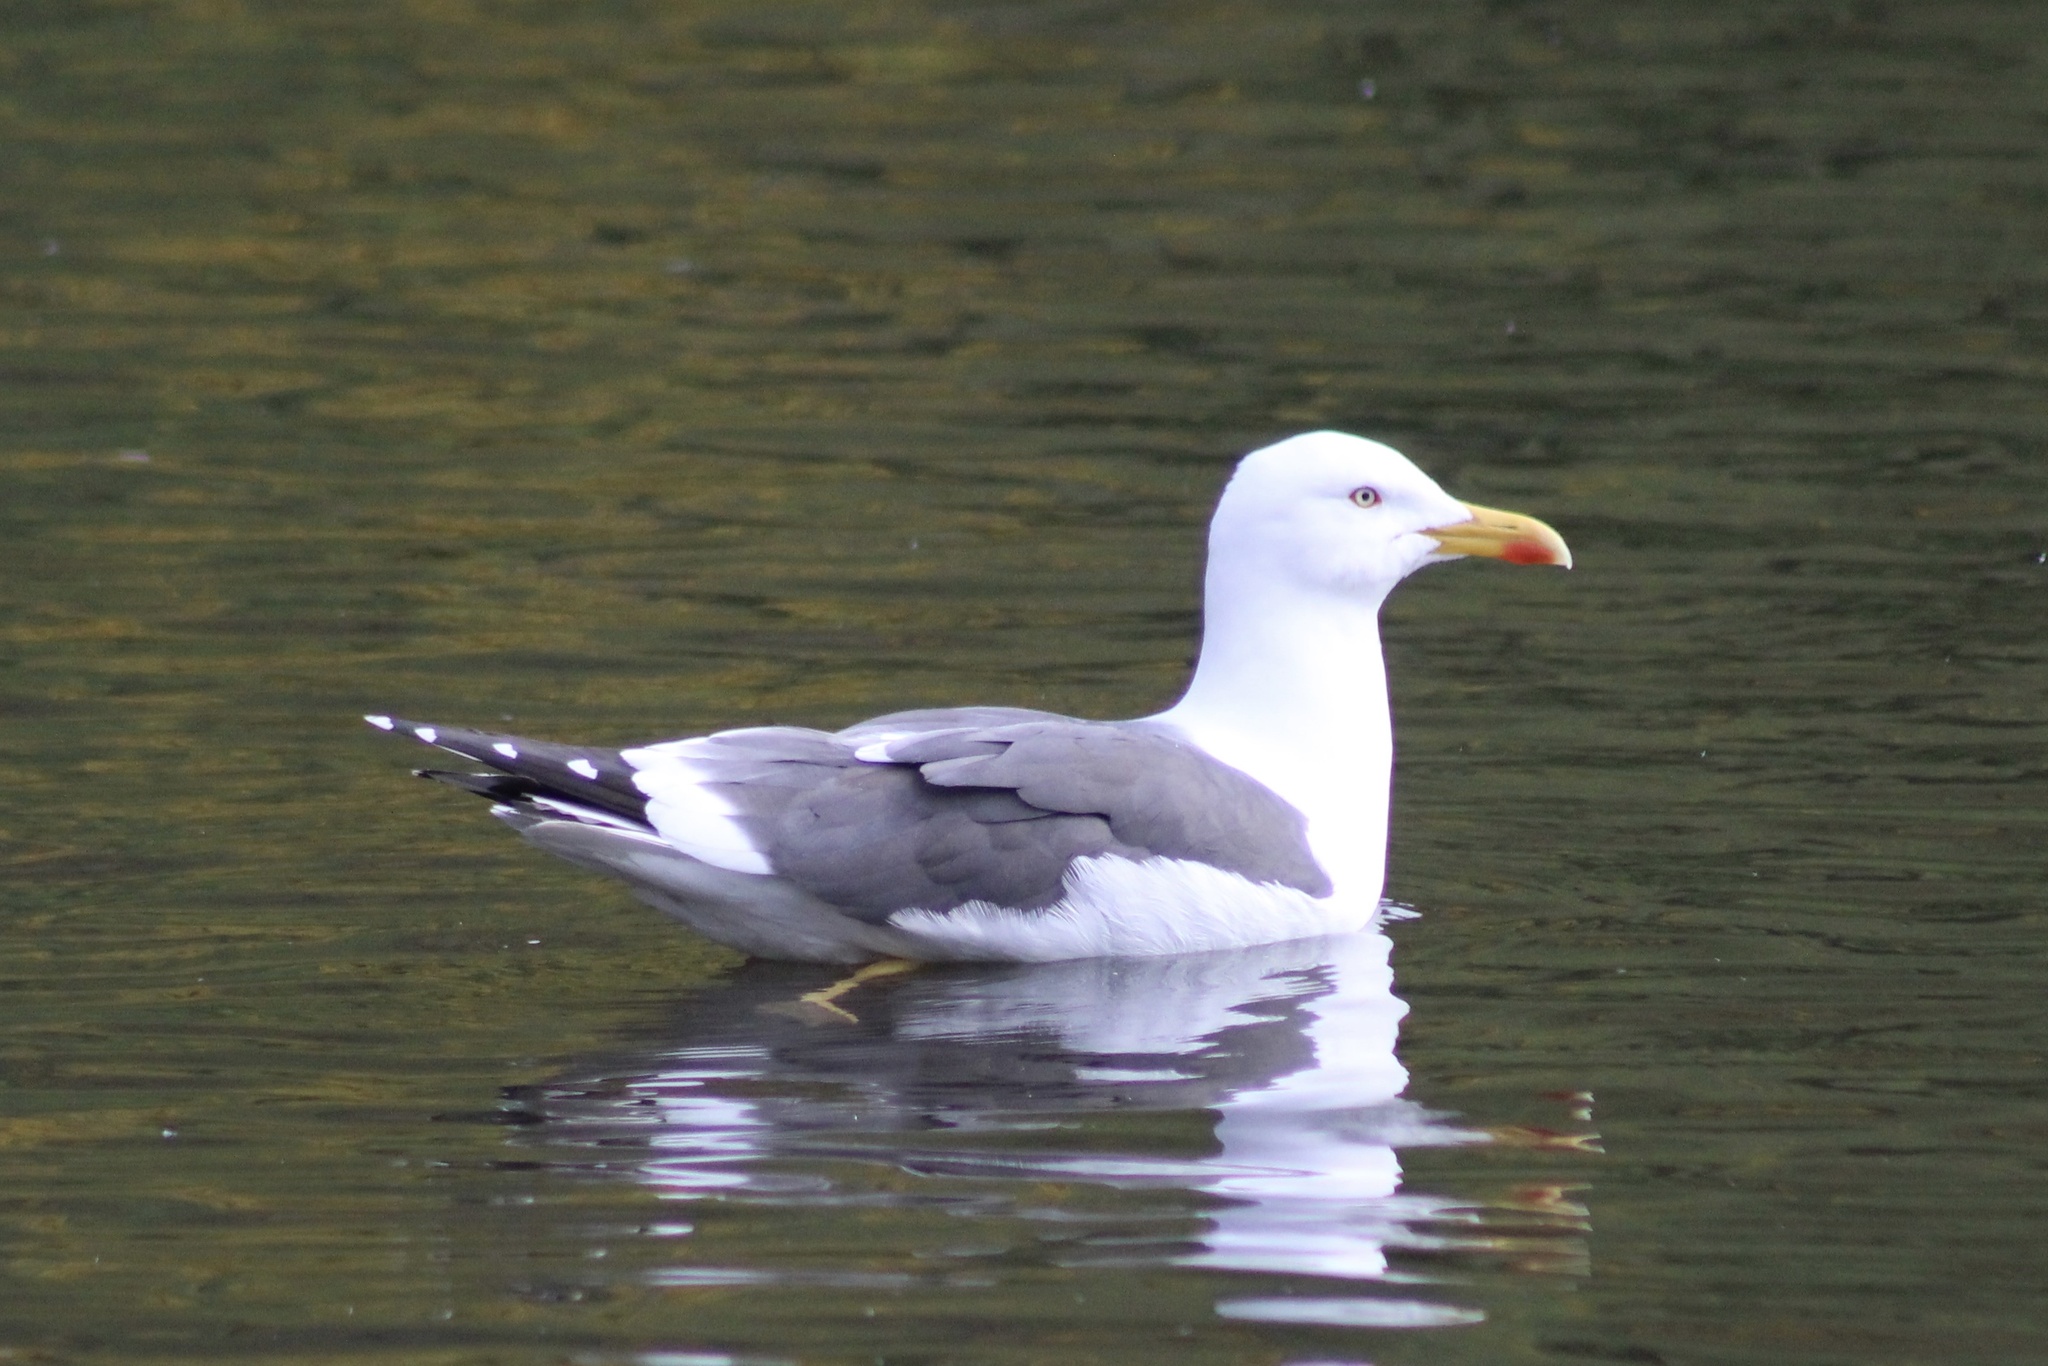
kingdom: Animalia
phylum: Chordata
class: Aves
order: Charadriiformes
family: Laridae
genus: Larus
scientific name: Larus fuscus
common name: Lesser black-backed gull
